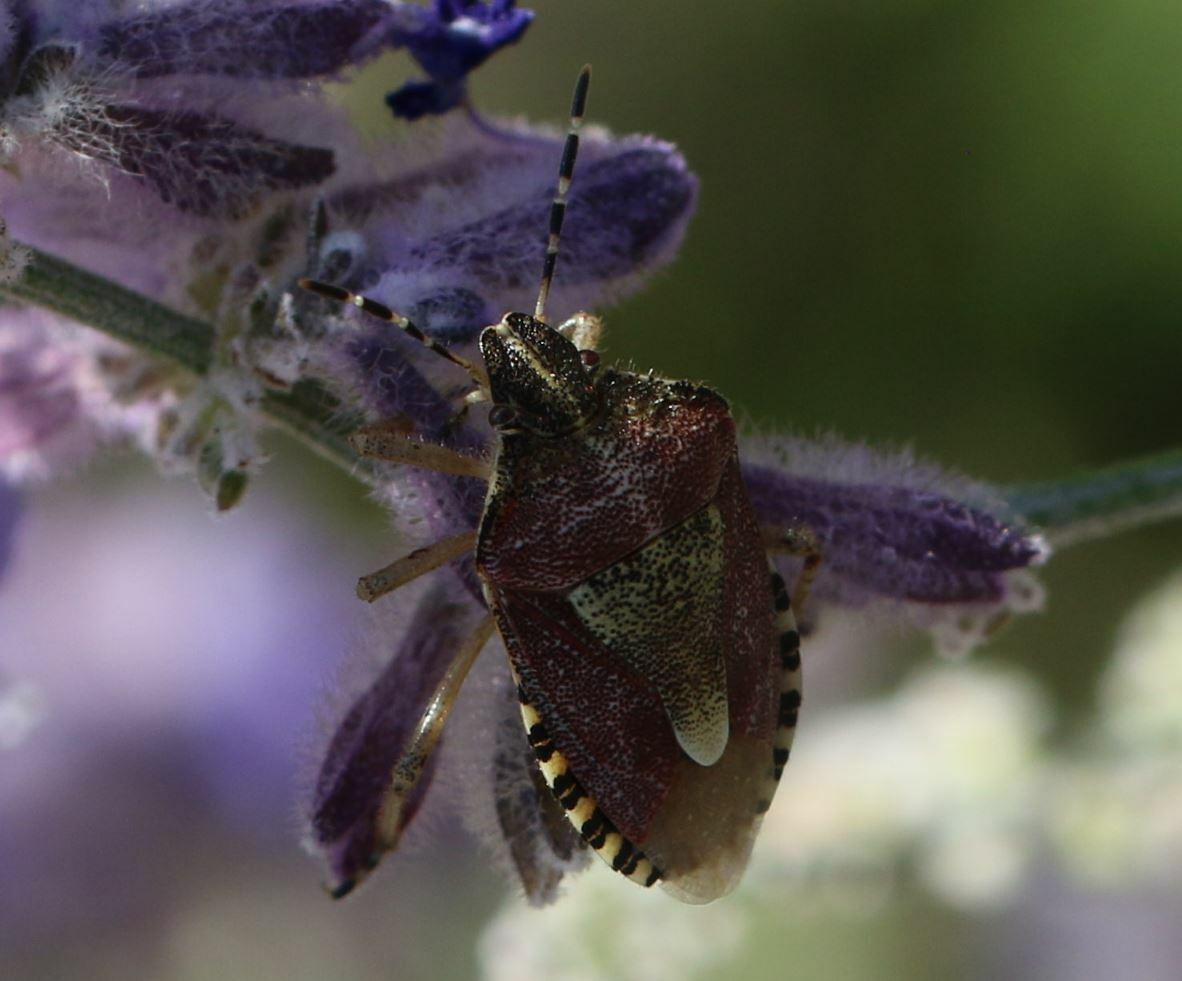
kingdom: Animalia
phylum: Arthropoda
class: Insecta
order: Hemiptera
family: Pentatomidae
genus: Dolycoris
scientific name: Dolycoris baccarum
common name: Sloe bug
